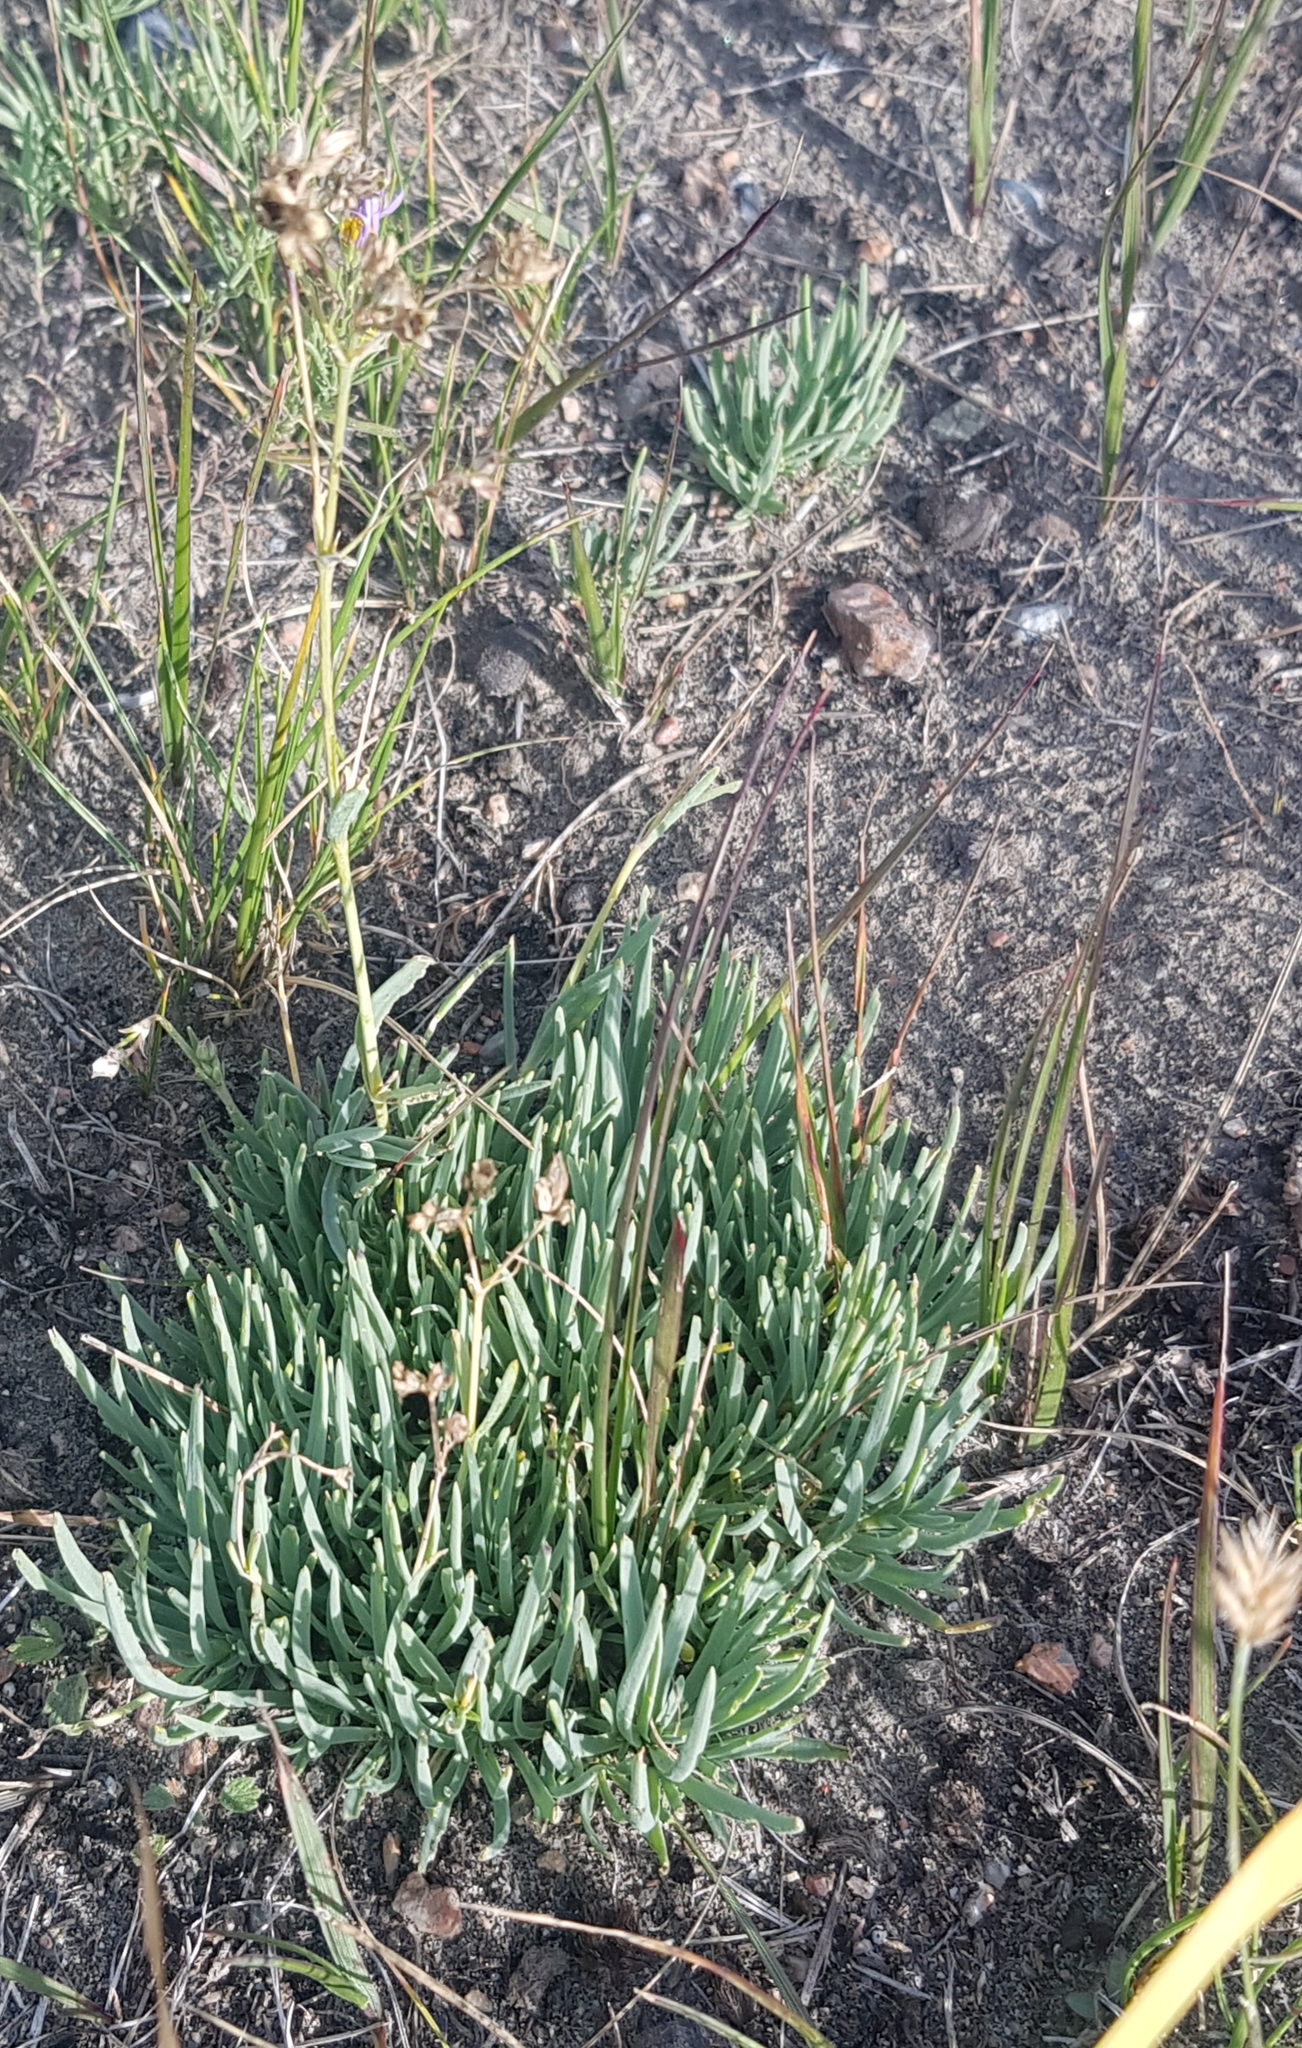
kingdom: Plantae
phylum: Tracheophyta
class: Magnoliopsida
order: Caryophyllales
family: Caryophyllaceae
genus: Gypsophila
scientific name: Gypsophila patrinii
